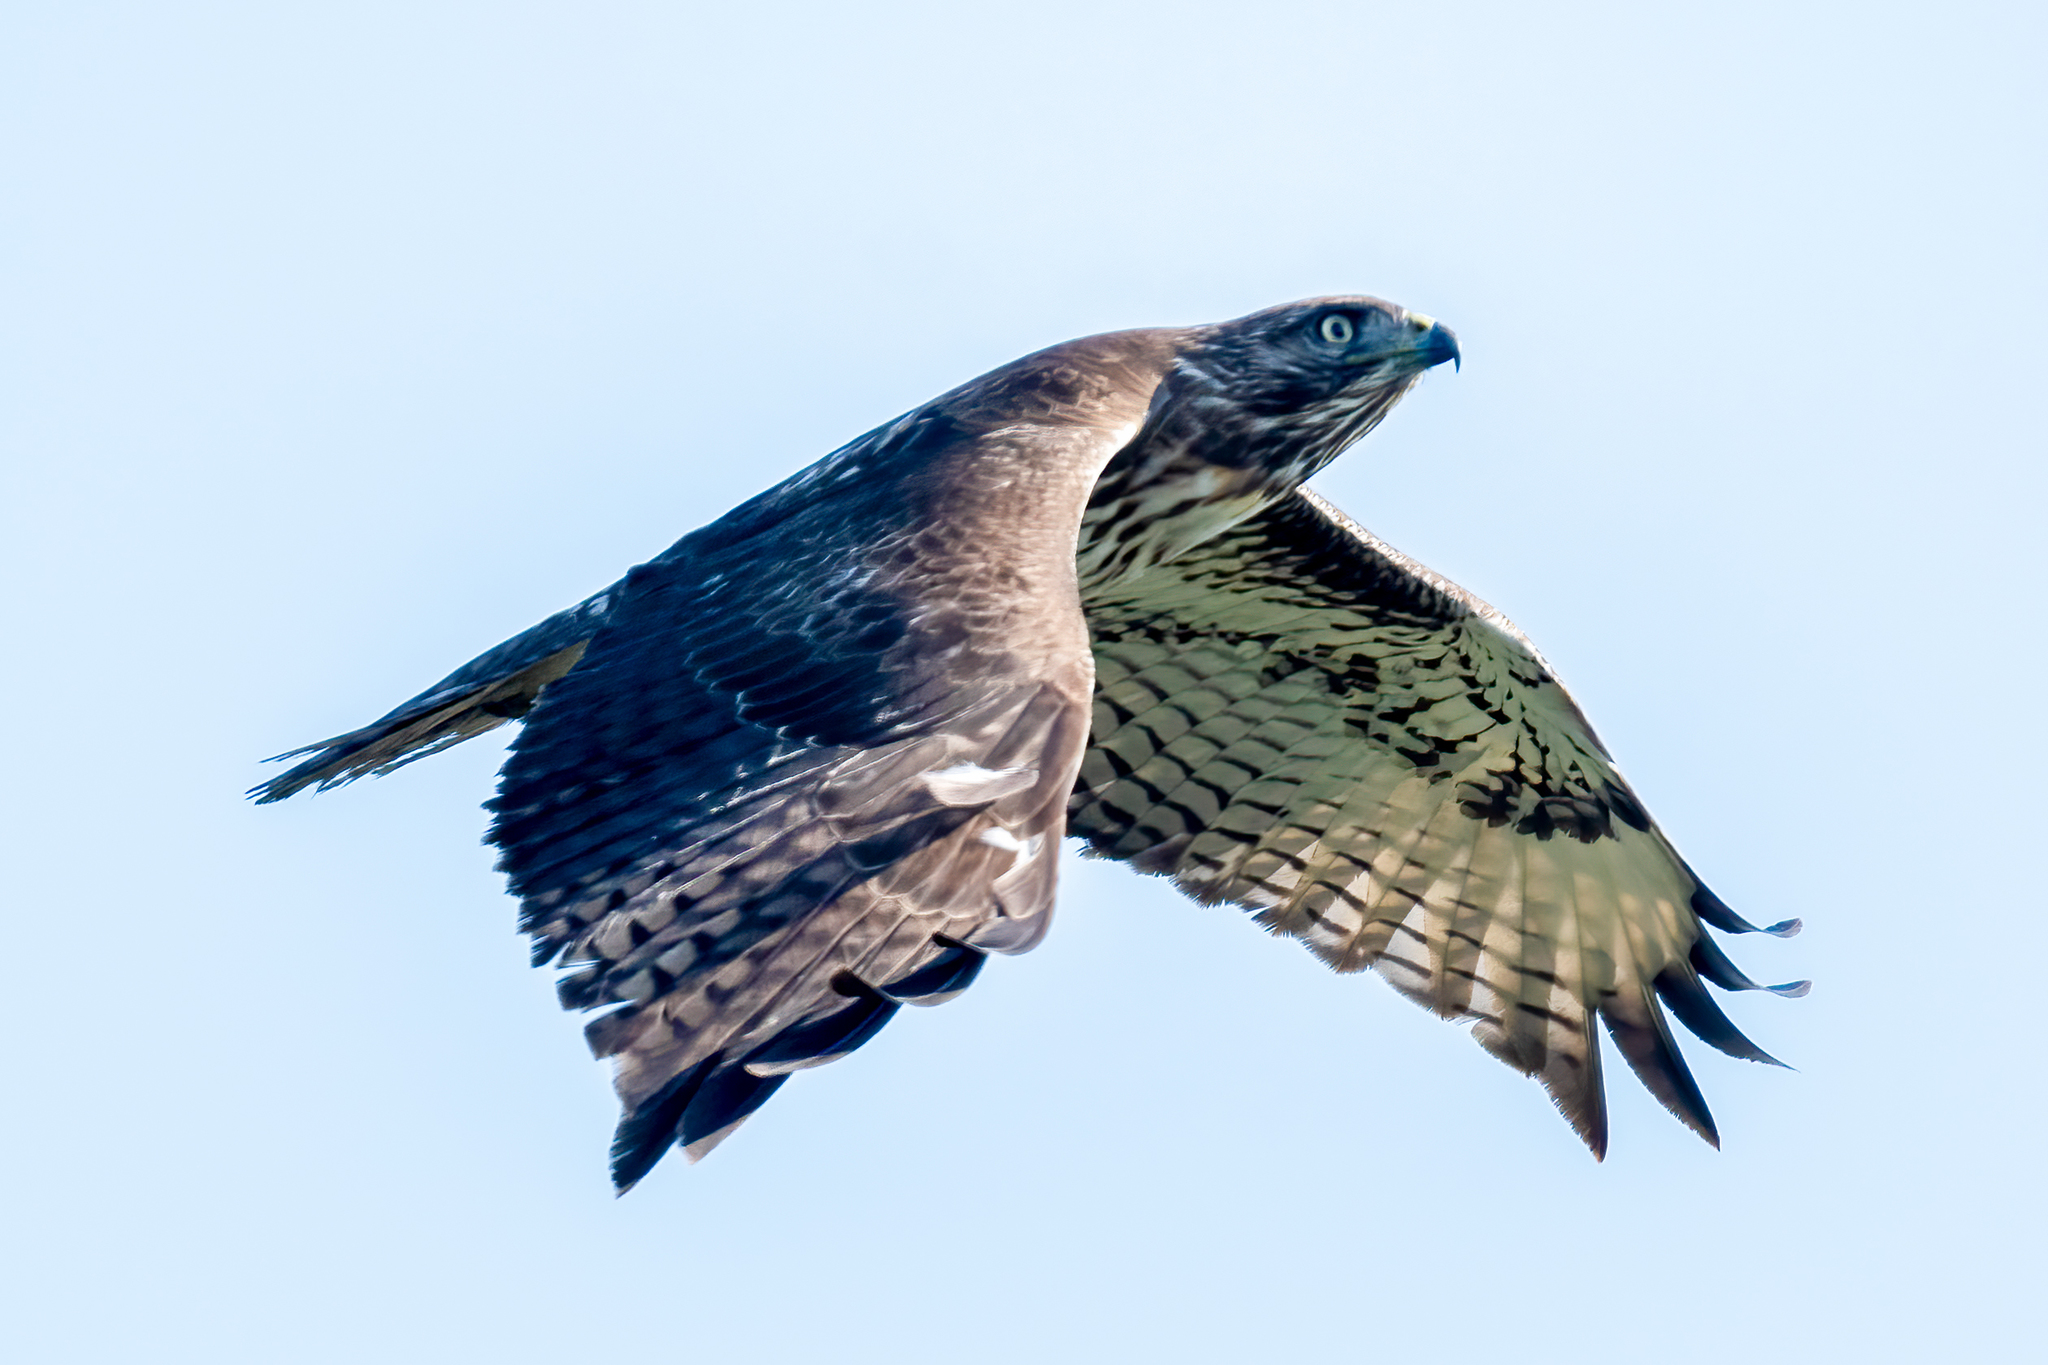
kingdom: Animalia
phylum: Chordata
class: Aves
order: Accipitriformes
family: Accipitridae
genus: Buteo
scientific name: Buteo jamaicensis
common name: Red-tailed hawk
